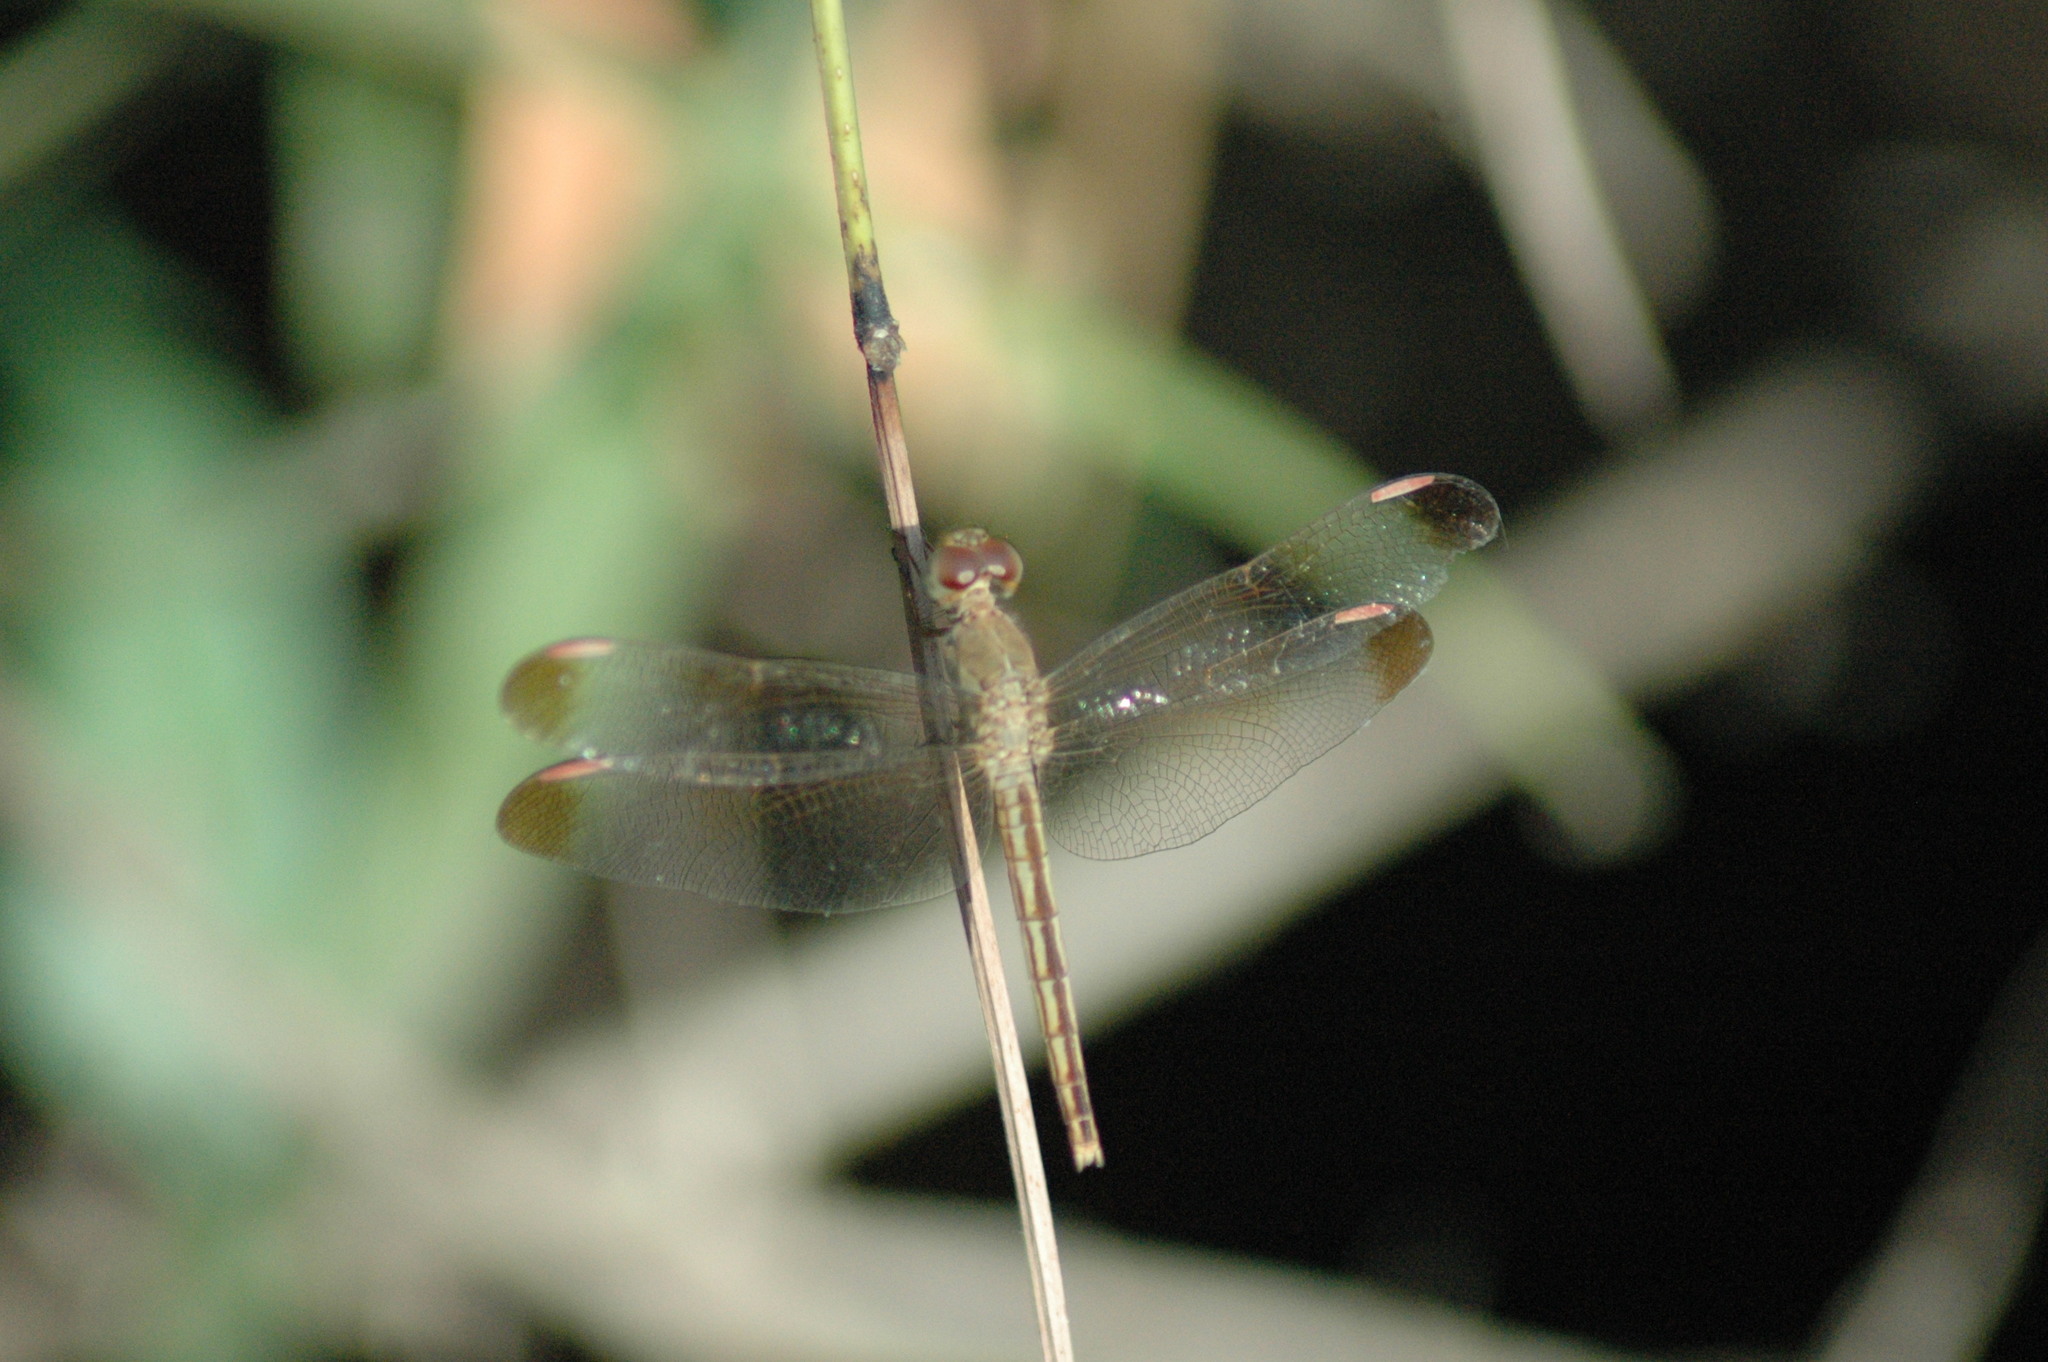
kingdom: Animalia
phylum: Arthropoda
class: Insecta
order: Odonata
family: Libellulidae
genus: Neurothemis
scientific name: Neurothemis stigmatizans
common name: Painted grasshawk
